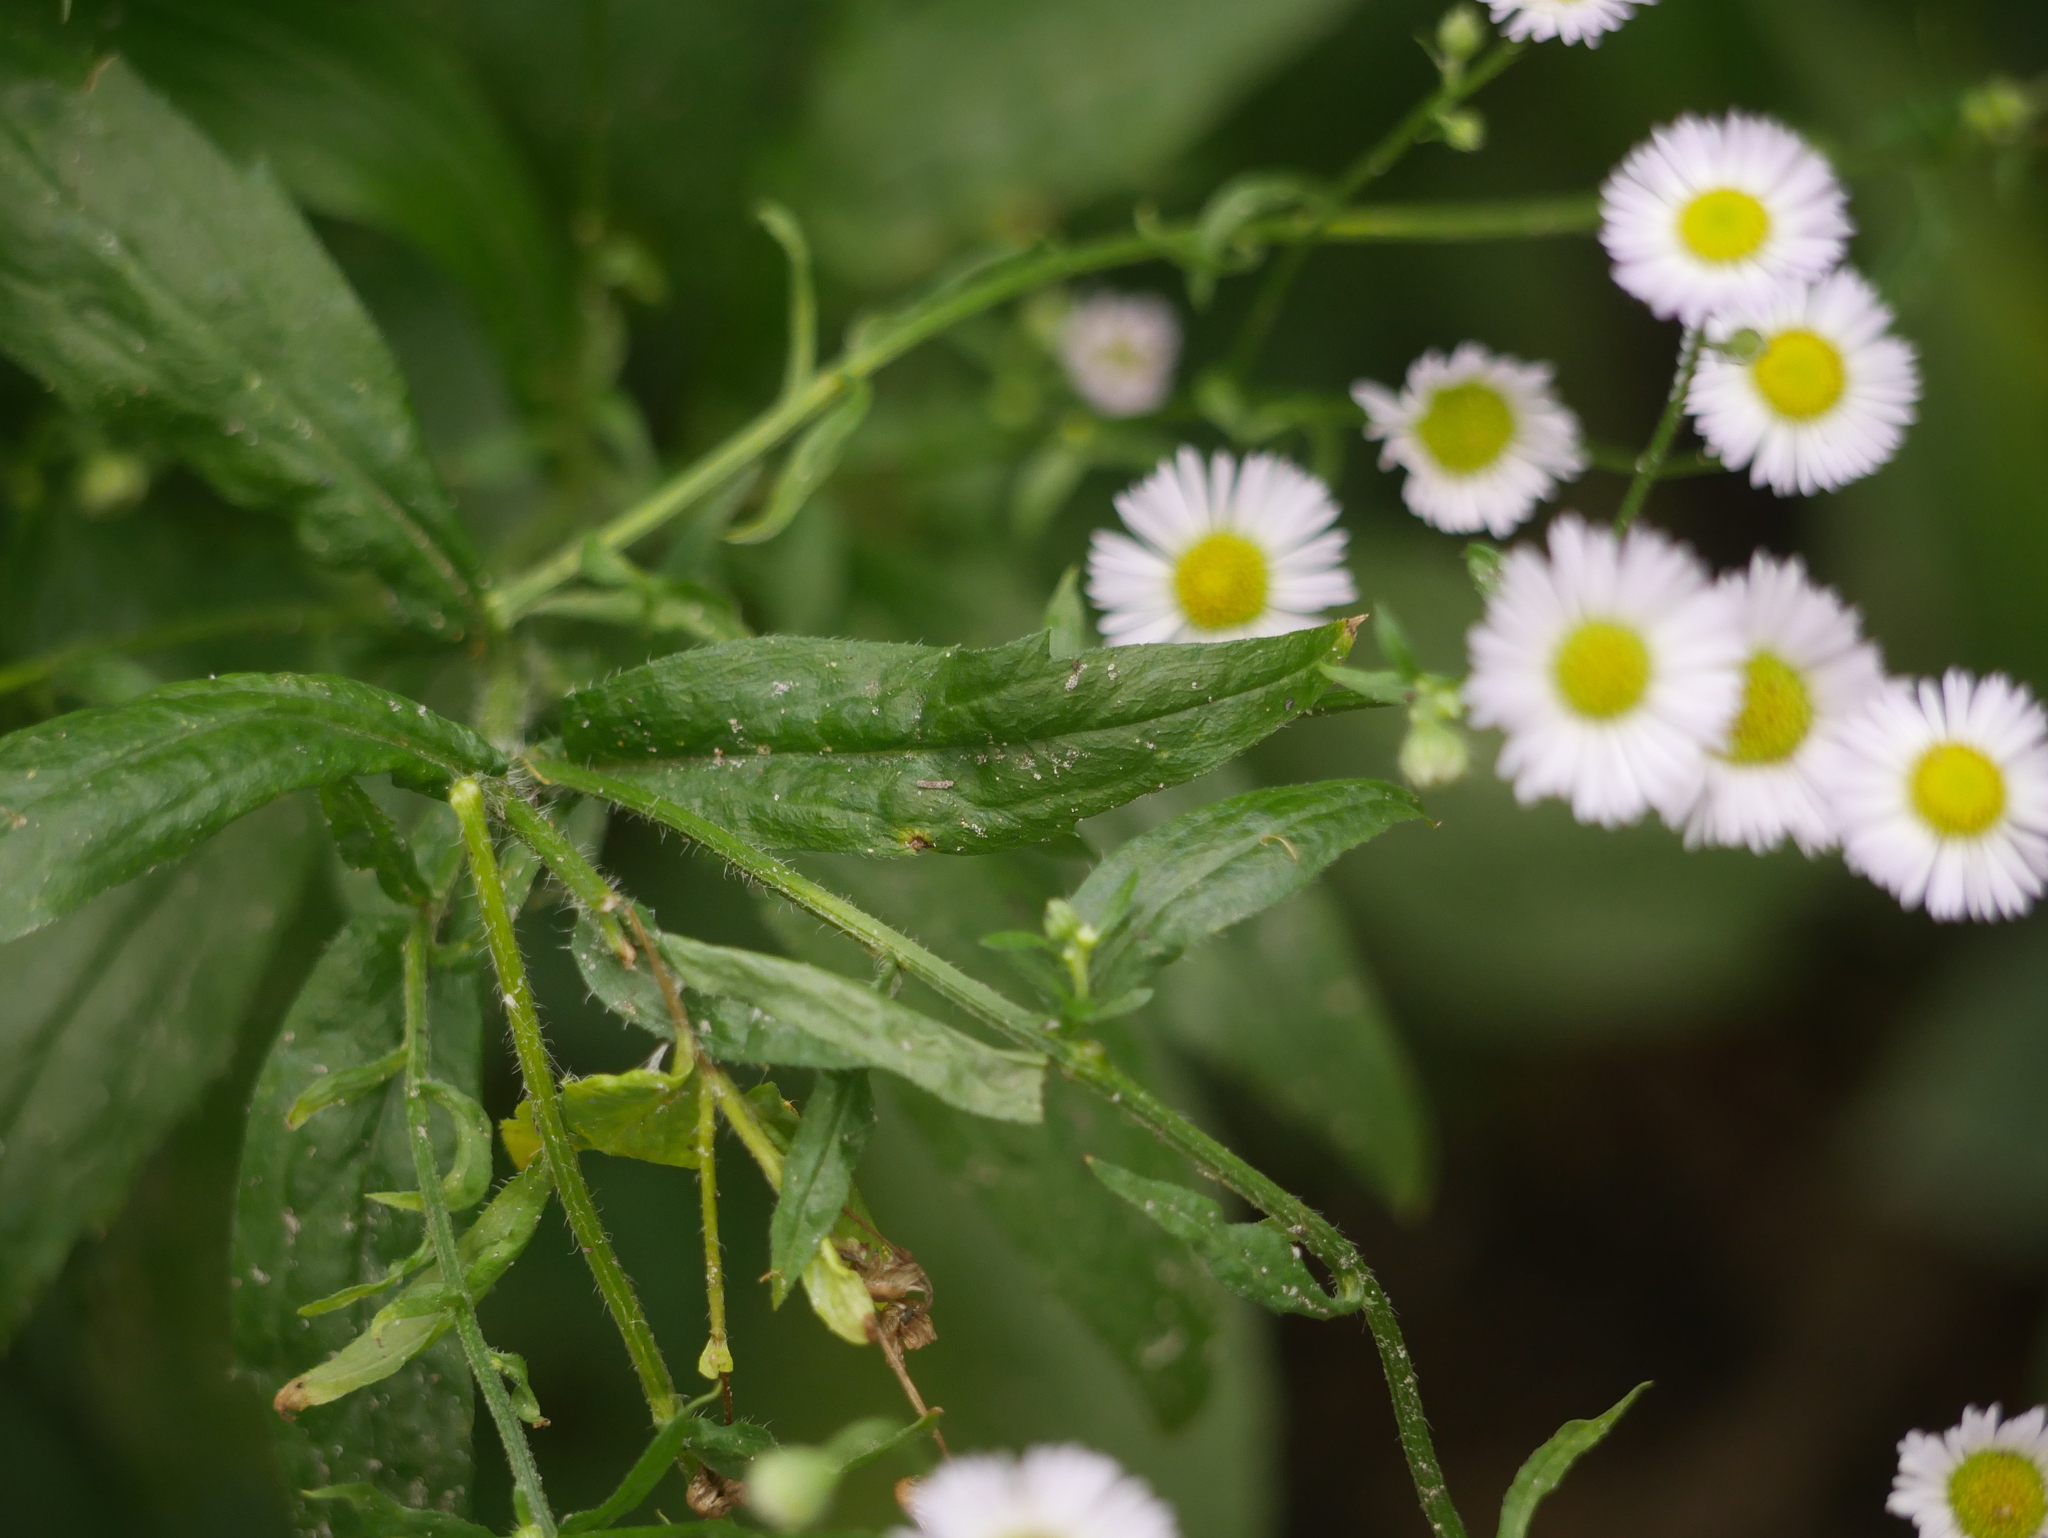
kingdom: Plantae
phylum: Tracheophyta
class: Magnoliopsida
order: Asterales
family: Asteraceae
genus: Erigeron
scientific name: Erigeron annuus
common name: Tall fleabane
